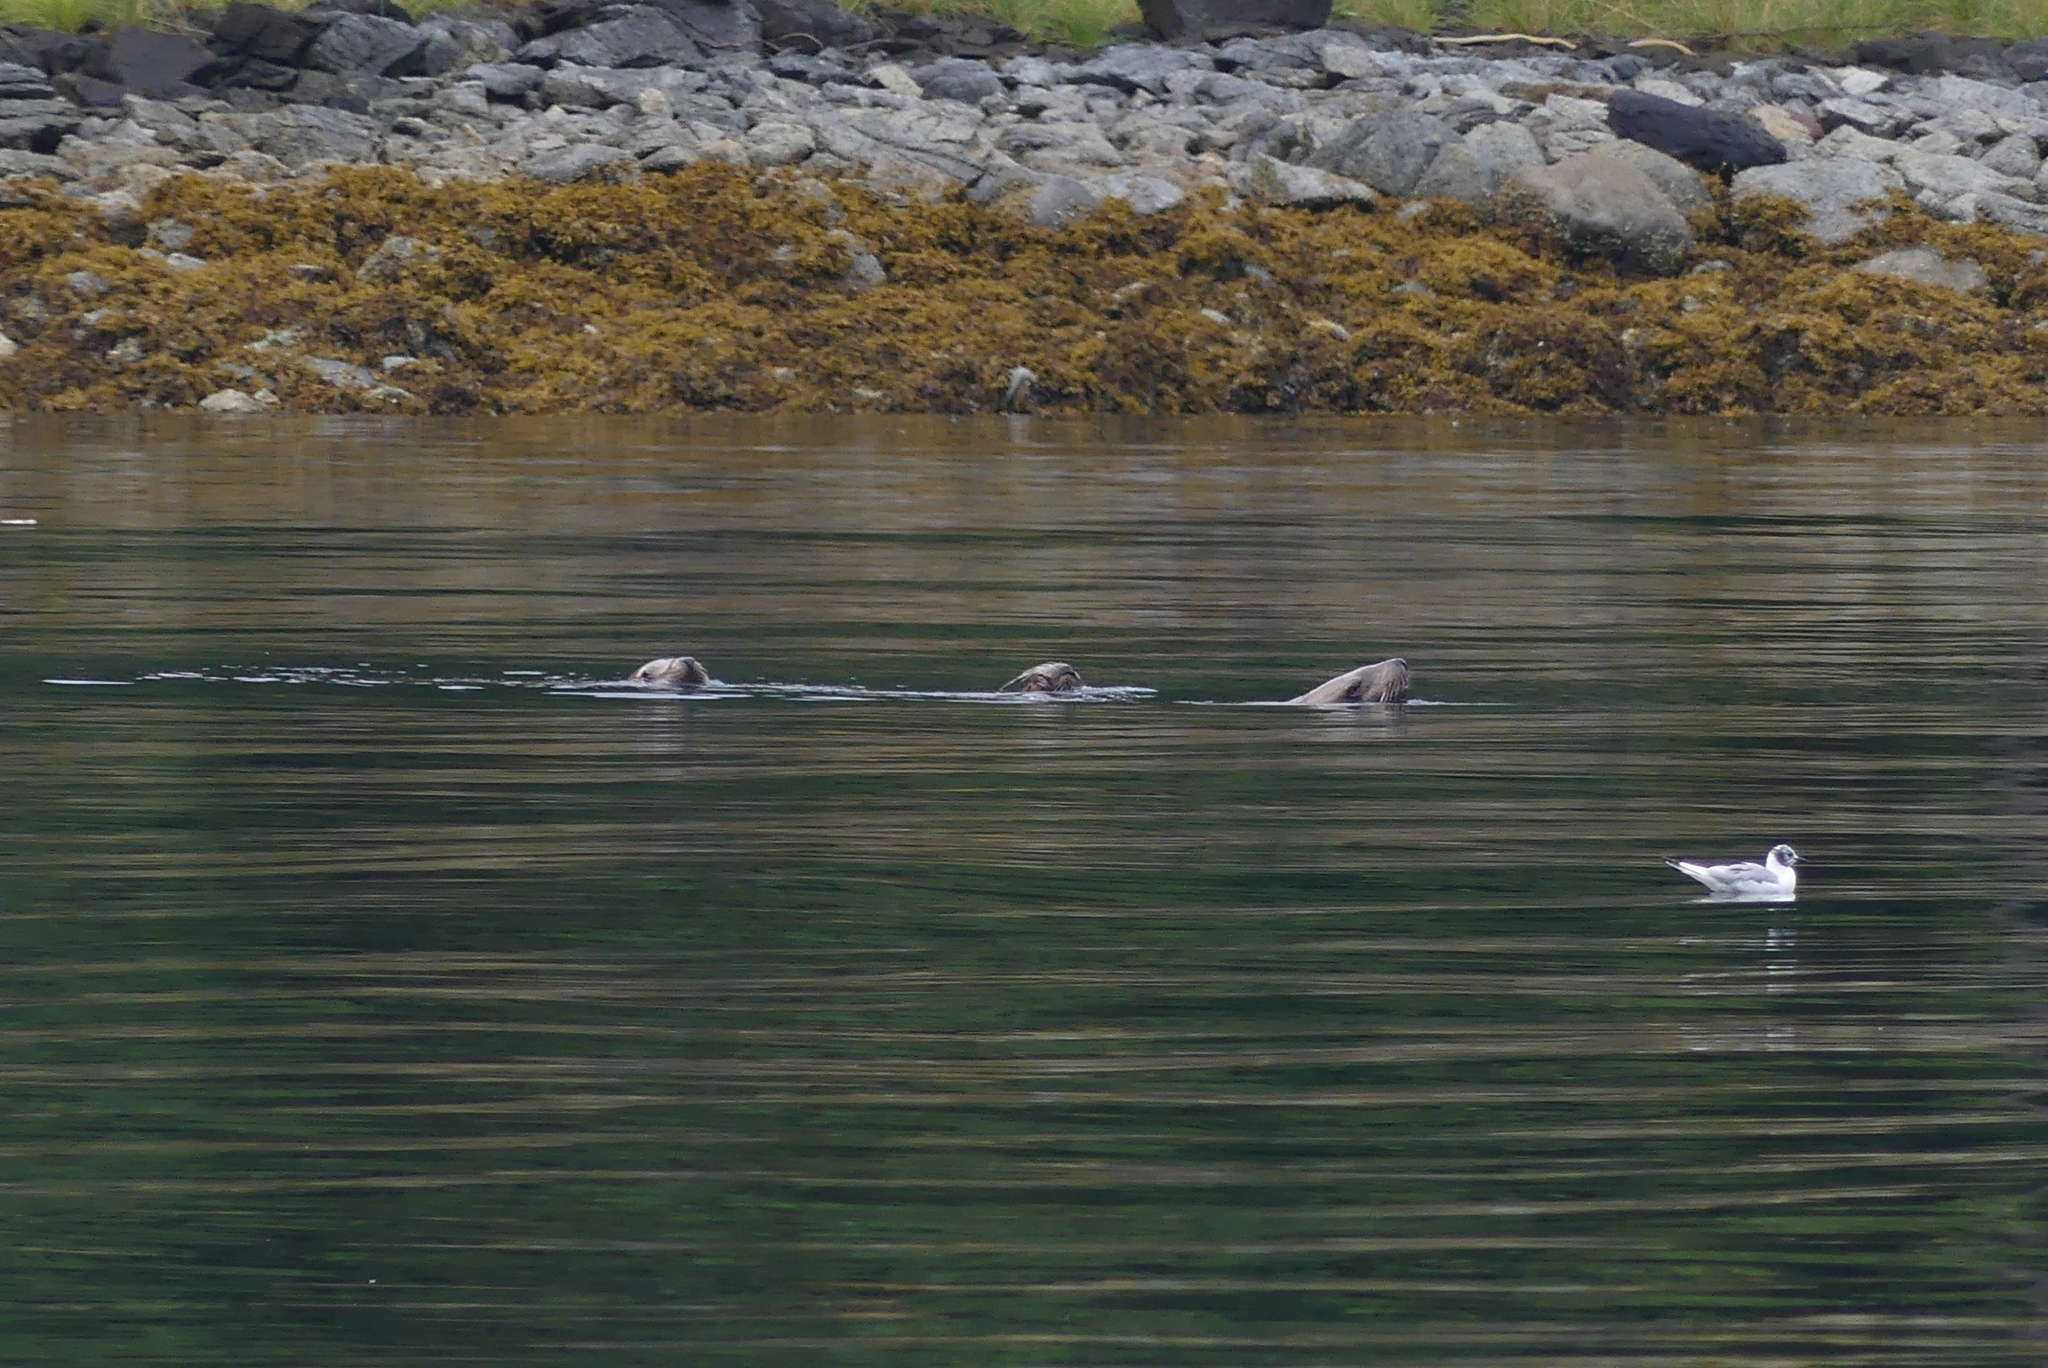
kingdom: Animalia
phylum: Chordata
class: Mammalia
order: Carnivora
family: Otariidae
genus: Eumetopias
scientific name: Eumetopias jubatus
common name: Steller sea lion
